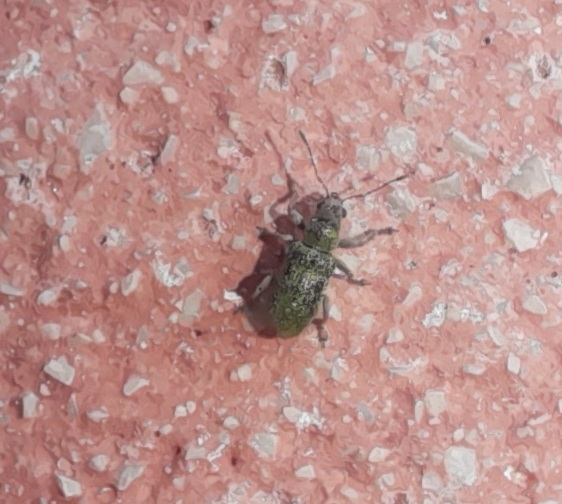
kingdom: Animalia
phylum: Arthropoda
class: Insecta
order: Coleoptera
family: Curculionidae
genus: Pachyrhinus
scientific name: Pachyrhinus lethierryi
